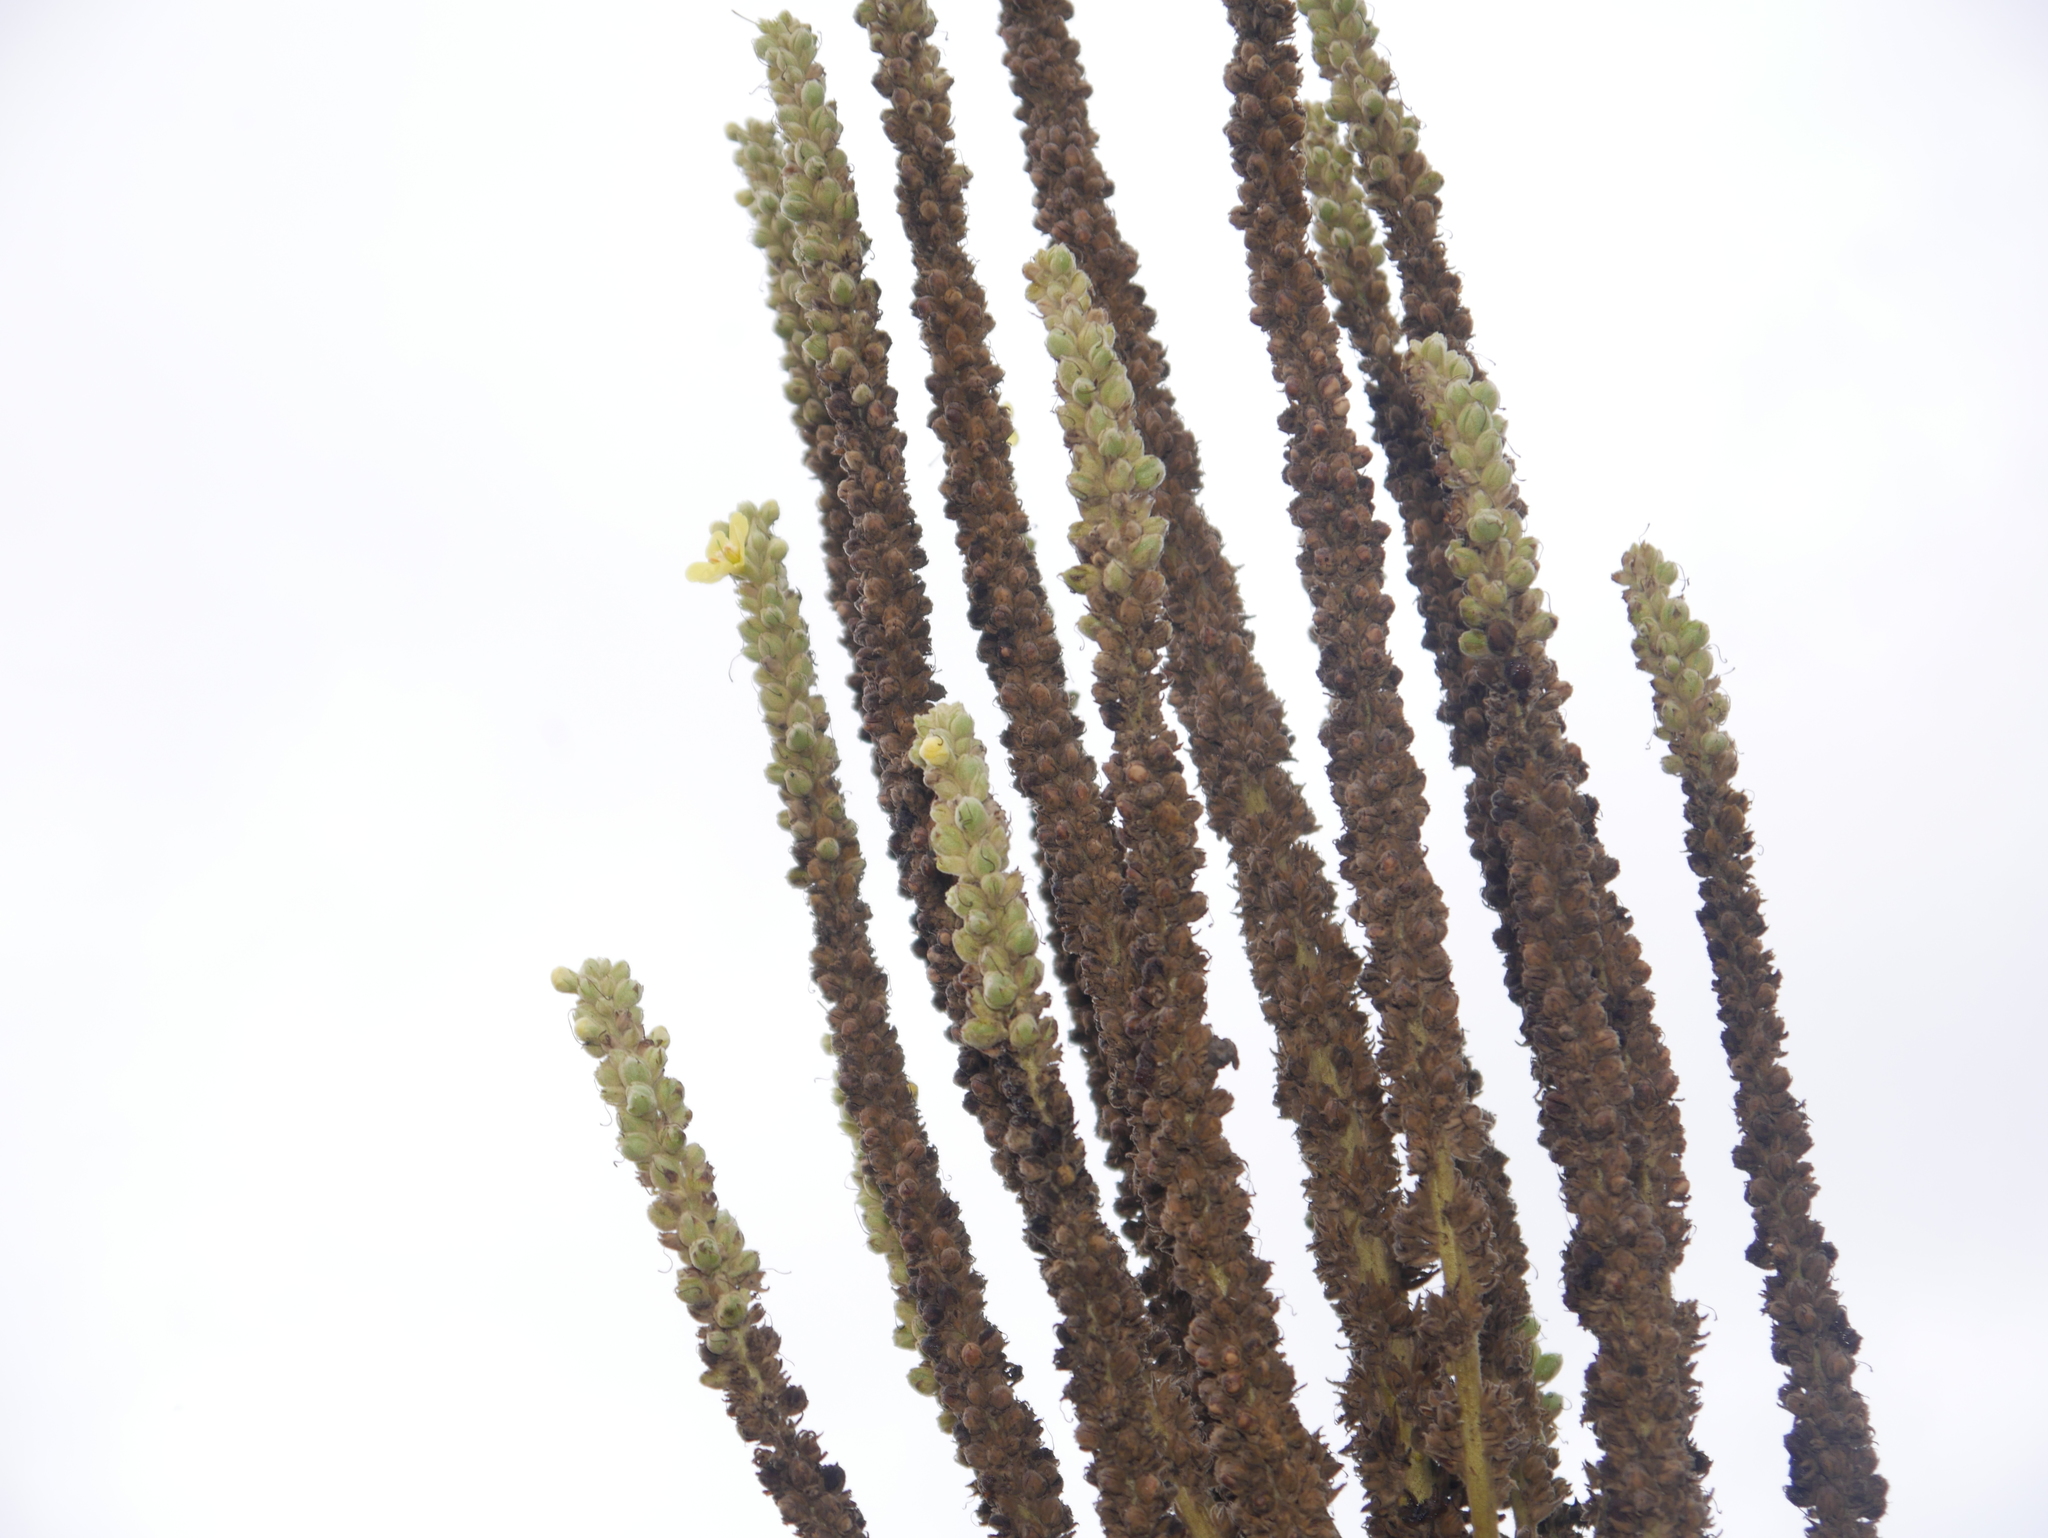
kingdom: Plantae
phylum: Tracheophyta
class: Magnoliopsida
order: Lamiales
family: Scrophulariaceae
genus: Verbascum
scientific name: Verbascum thapsus
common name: Common mullein
